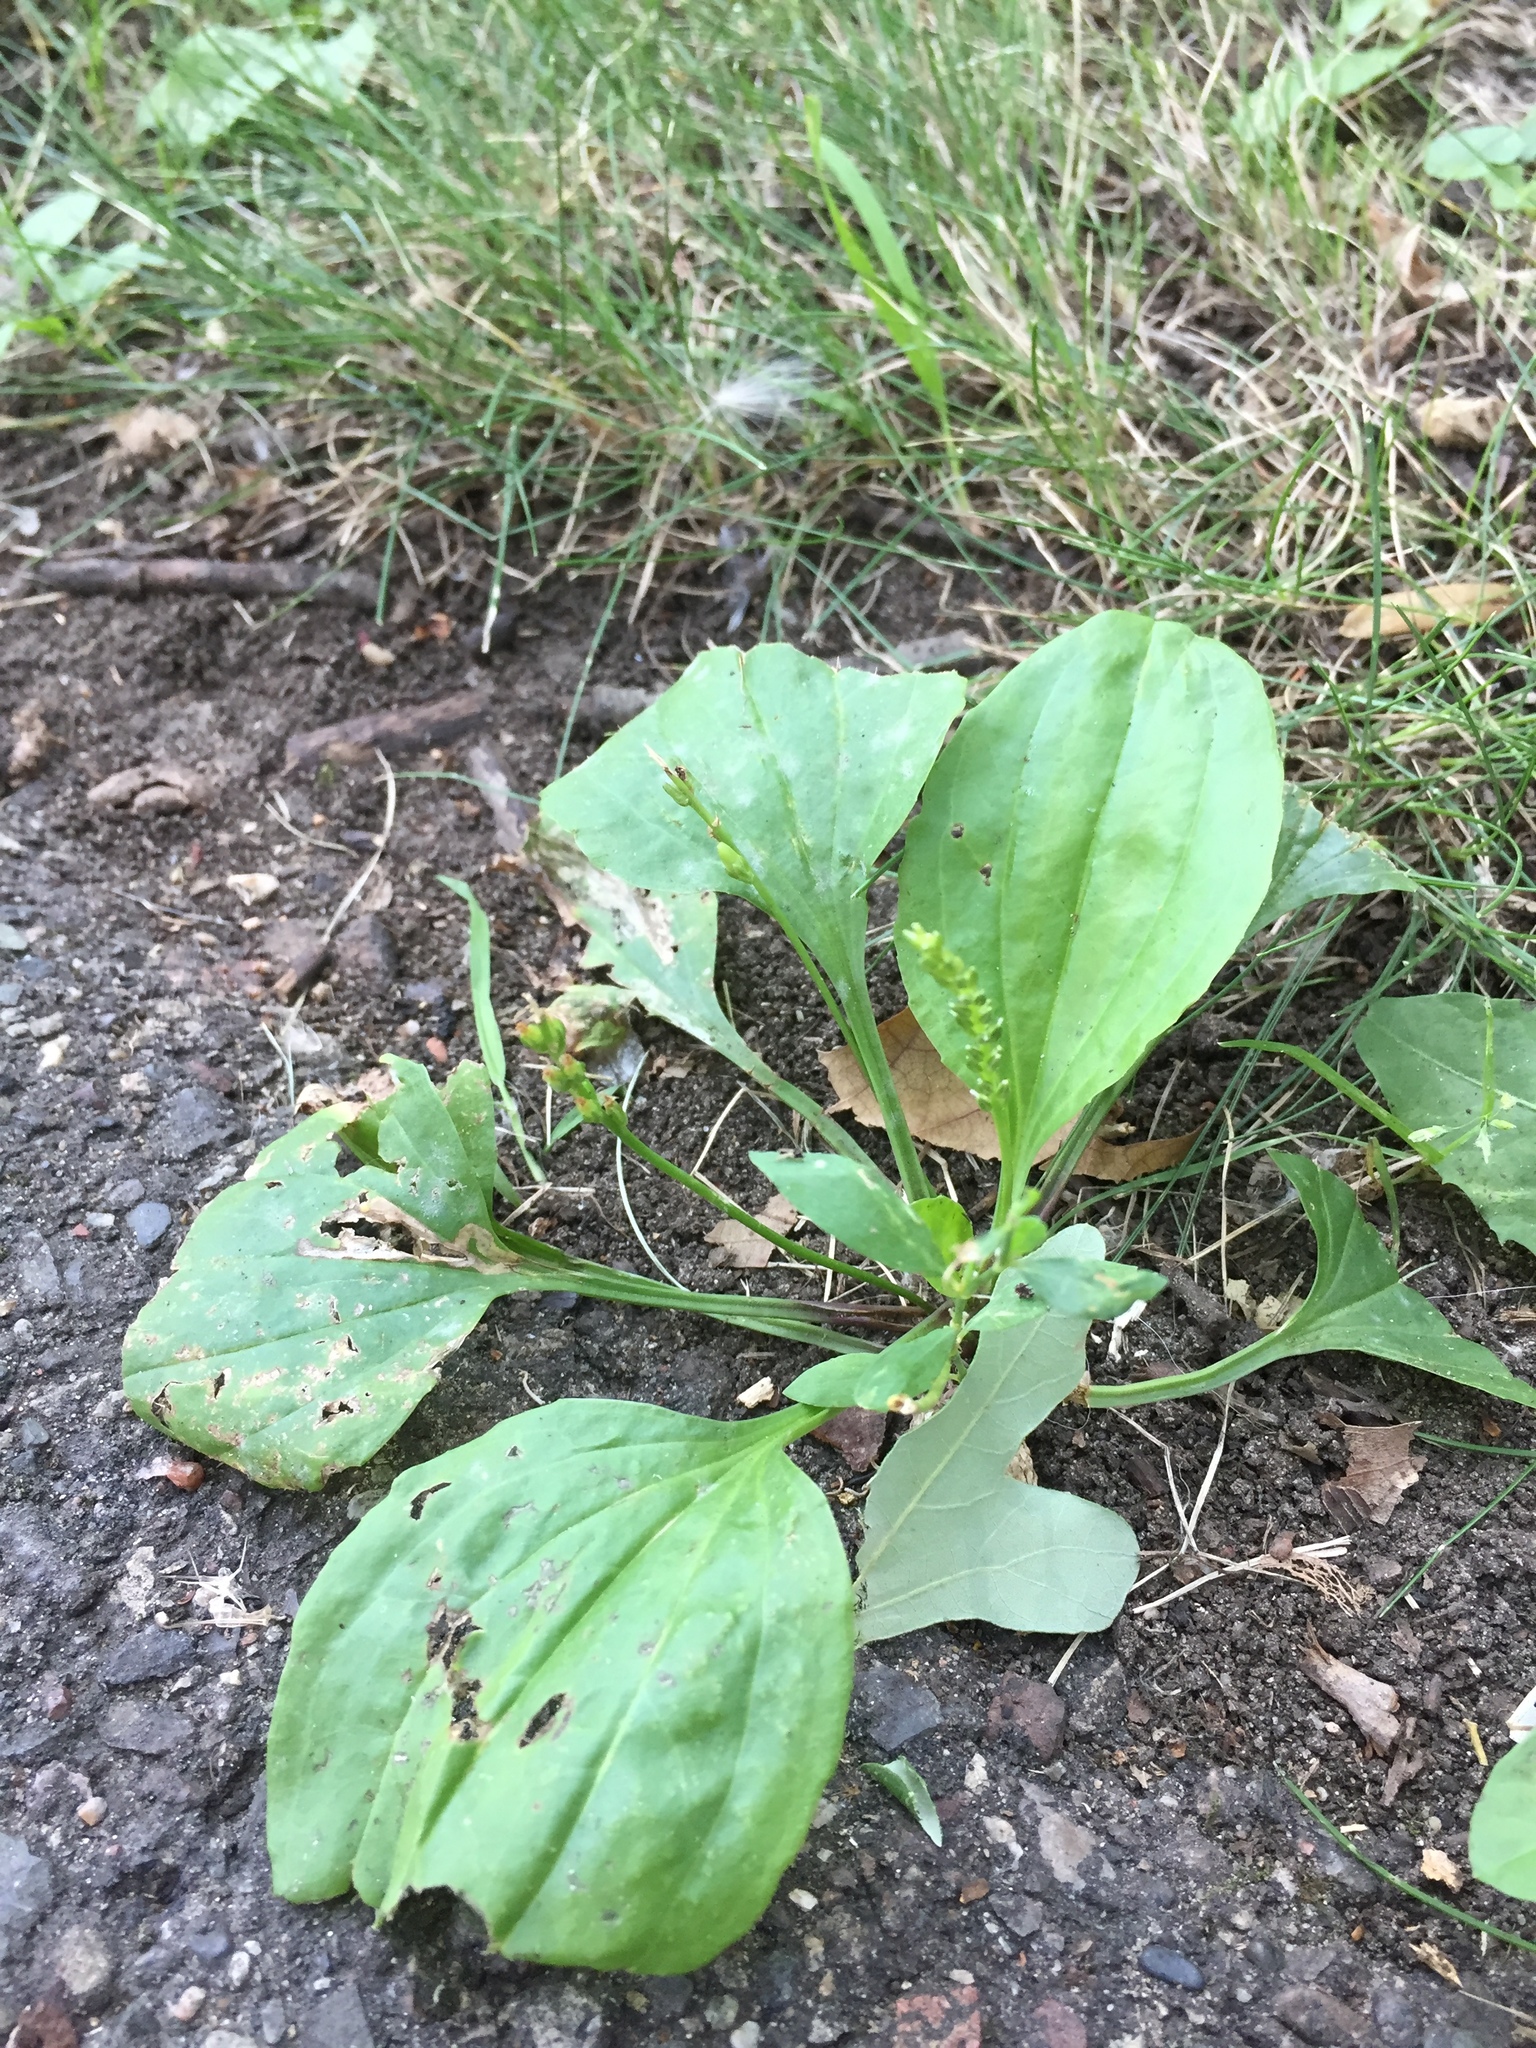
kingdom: Plantae
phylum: Tracheophyta
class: Magnoliopsida
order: Lamiales
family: Plantaginaceae
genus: Plantago
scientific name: Plantago rugelii
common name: American plantain
